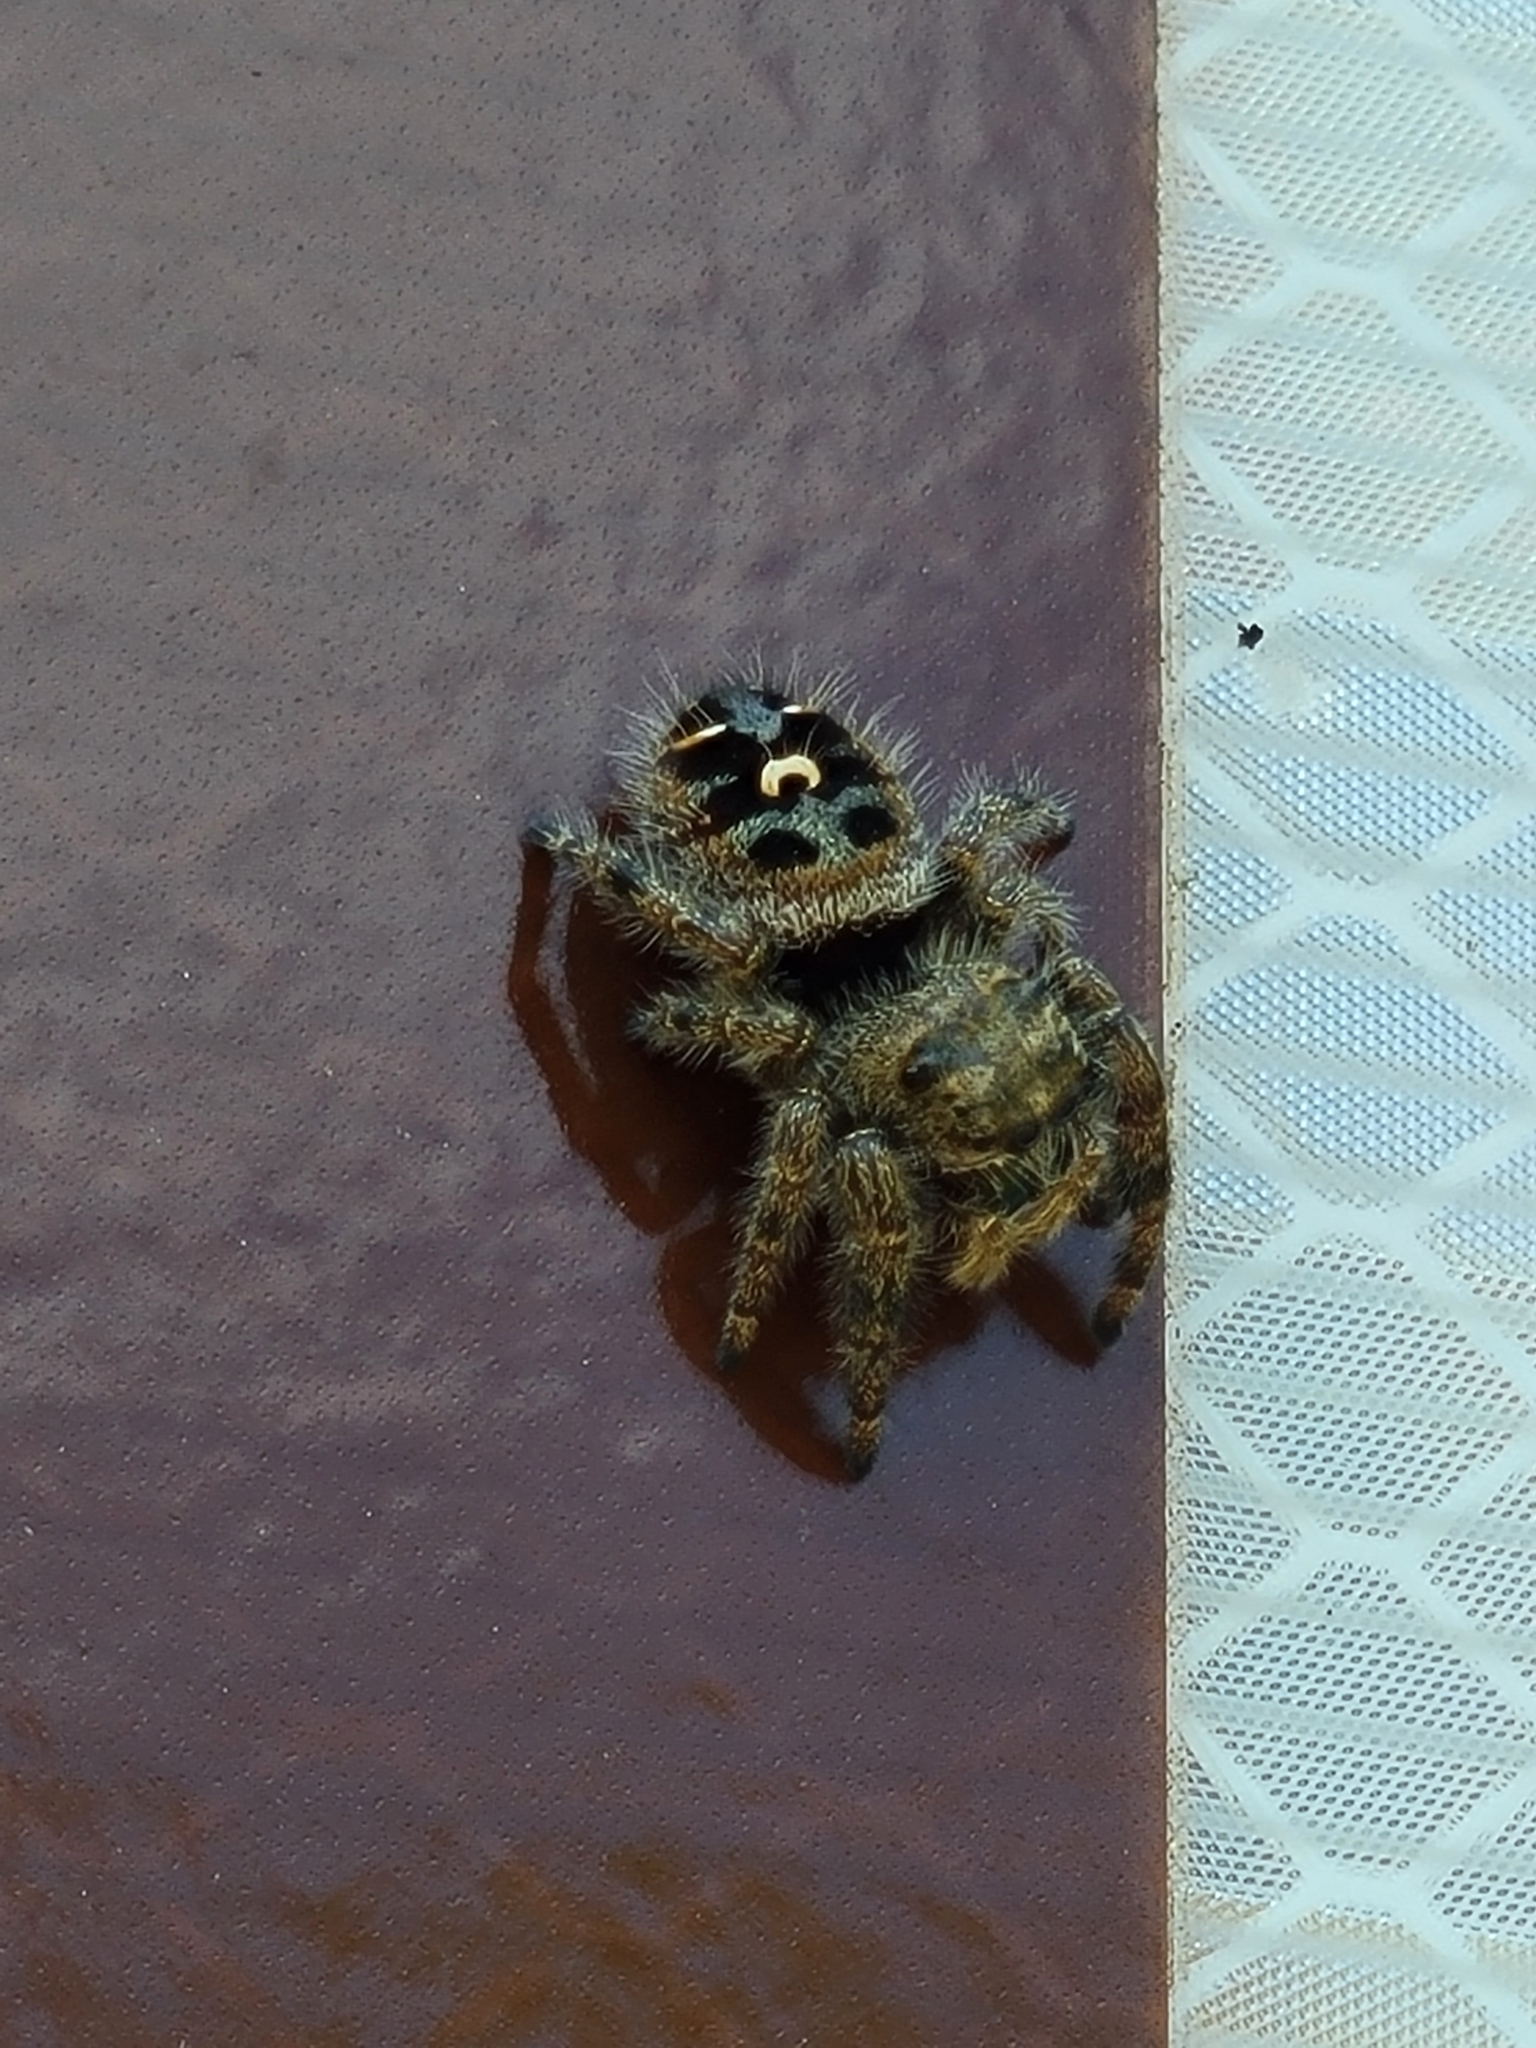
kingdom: Animalia
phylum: Arthropoda
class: Arachnida
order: Araneae
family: Salticidae
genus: Phidippus
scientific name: Phidippus audax
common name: Bold jumper
